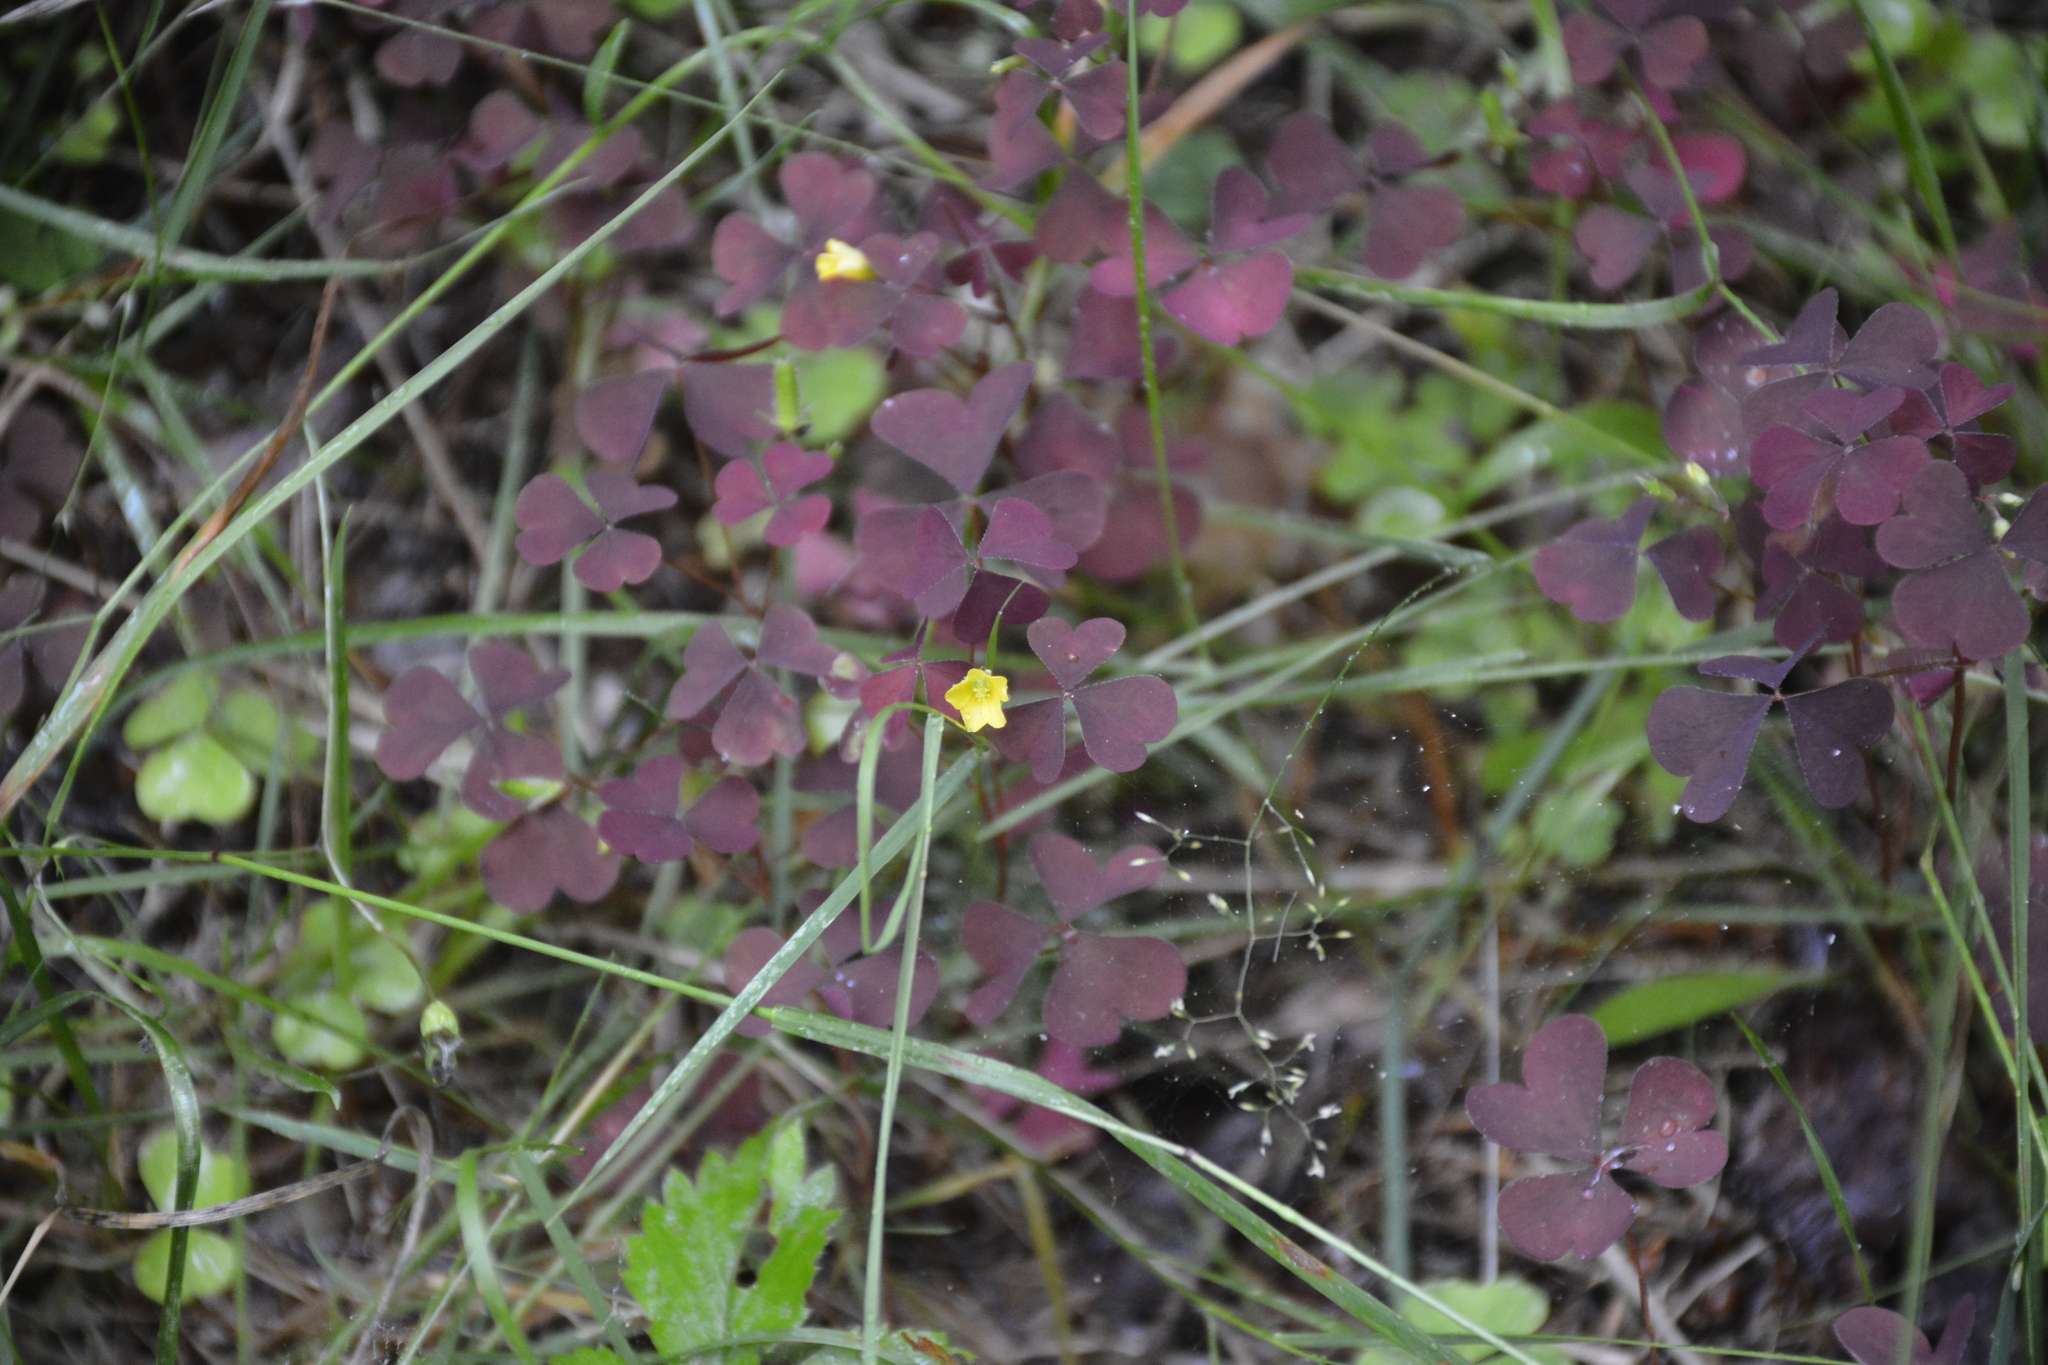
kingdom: Plantae
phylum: Tracheophyta
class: Magnoliopsida
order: Oxalidales
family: Oxalidaceae
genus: Oxalis
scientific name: Oxalis stricta
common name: Upright yellow-sorrel
